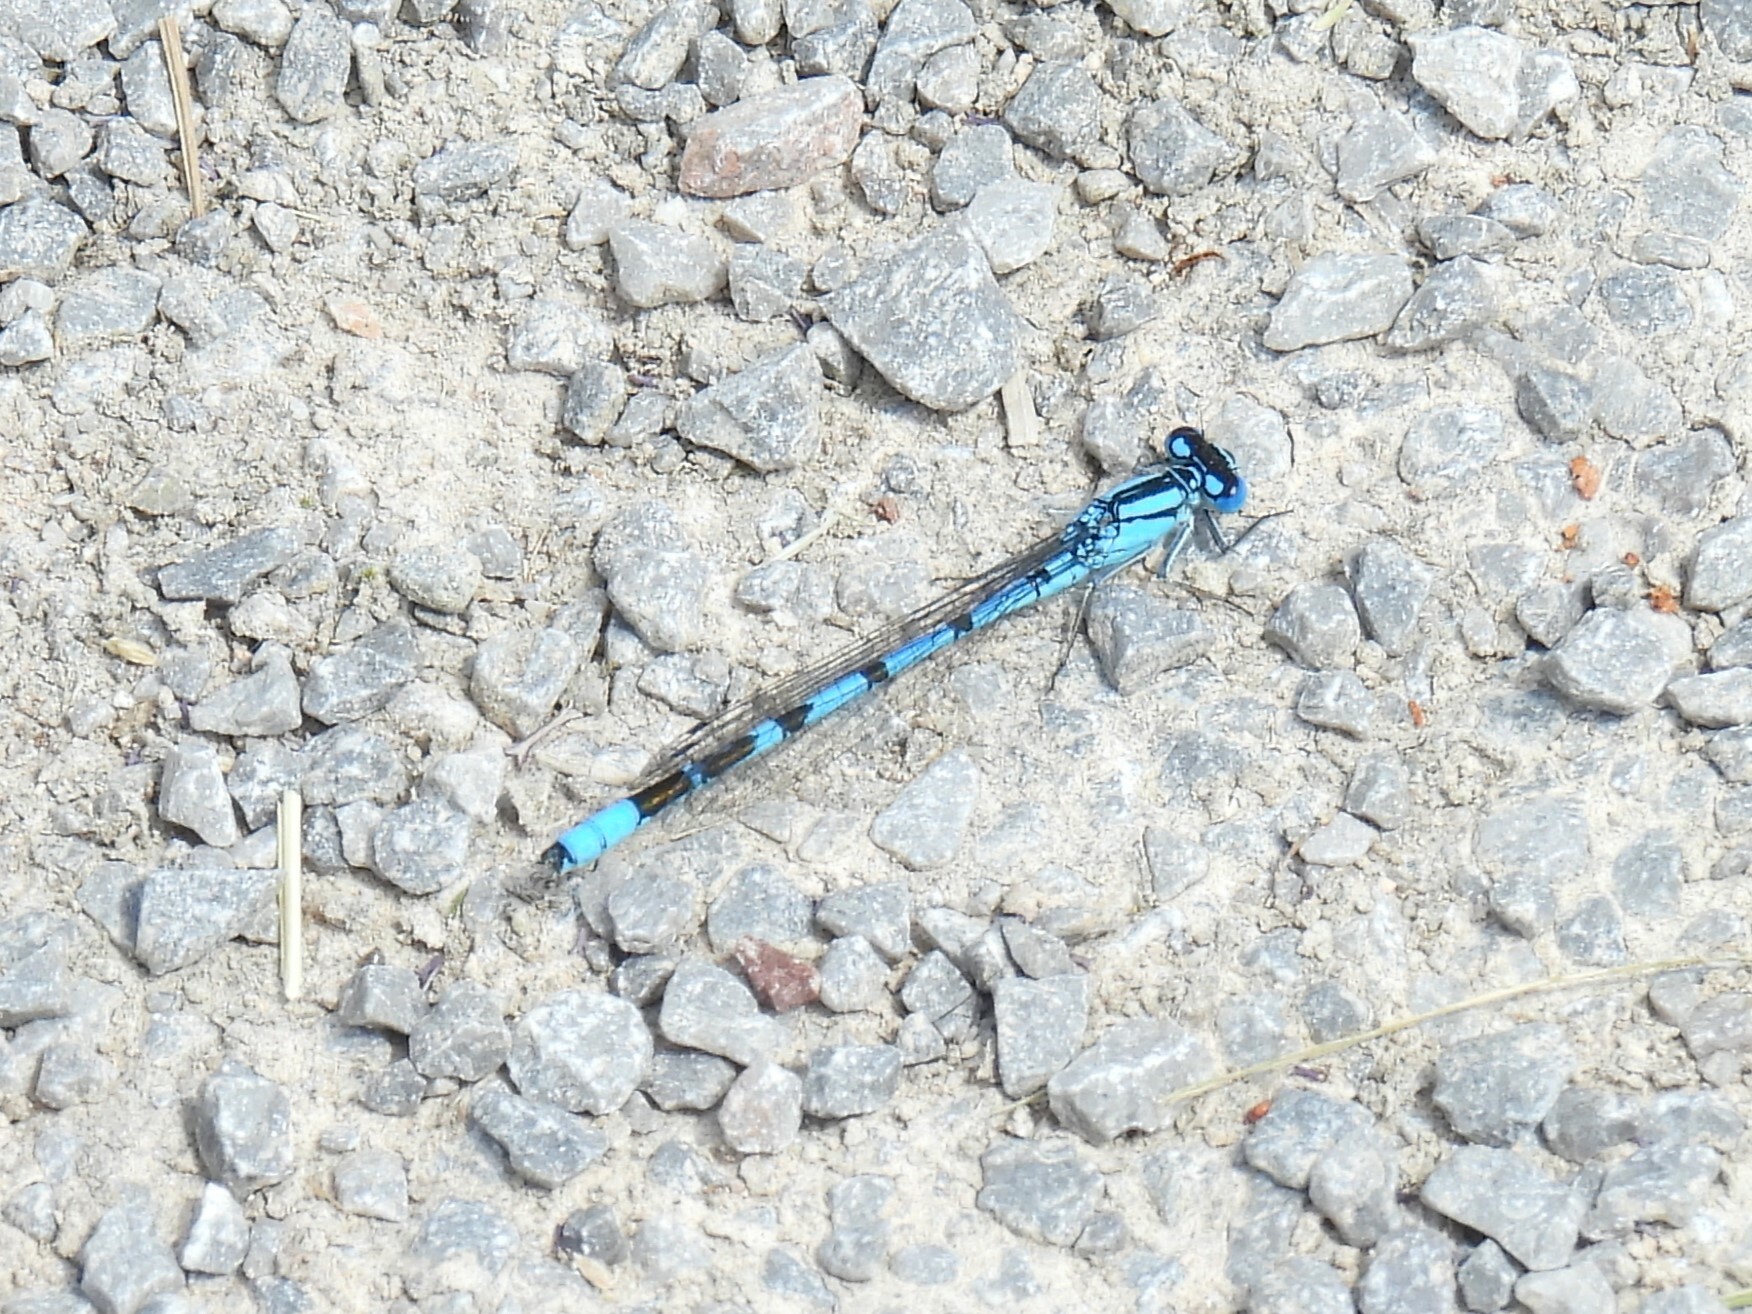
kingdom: Animalia
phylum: Arthropoda
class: Insecta
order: Odonata
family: Coenagrionidae
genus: Enallagma
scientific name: Enallagma cyathigerum
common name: Common blue damselfly
